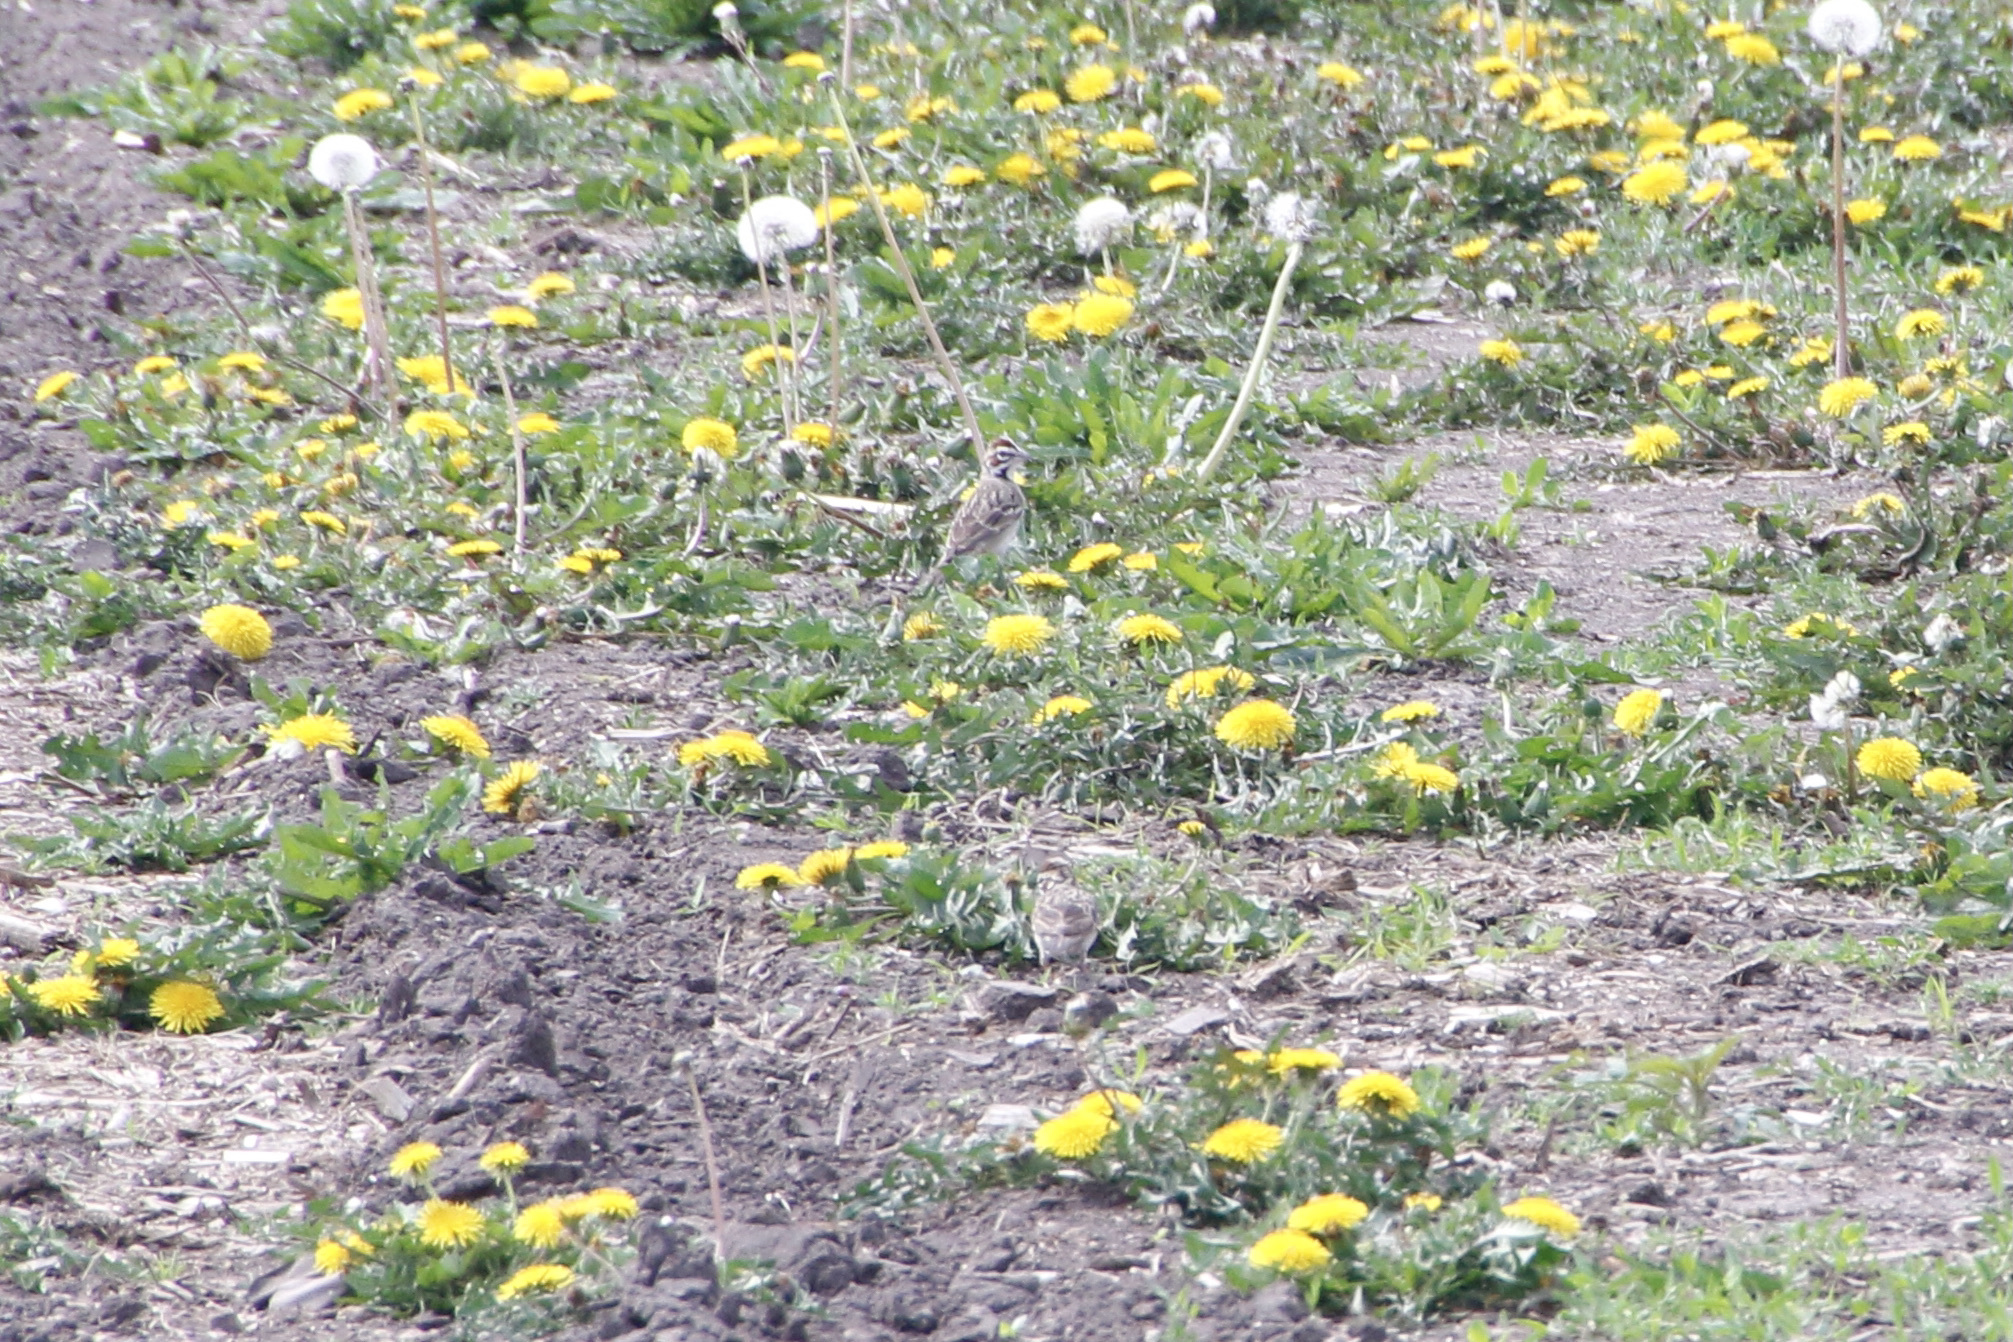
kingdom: Animalia
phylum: Chordata
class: Aves
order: Passeriformes
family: Passerellidae
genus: Chondestes
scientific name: Chondestes grammacus
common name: Lark sparrow
